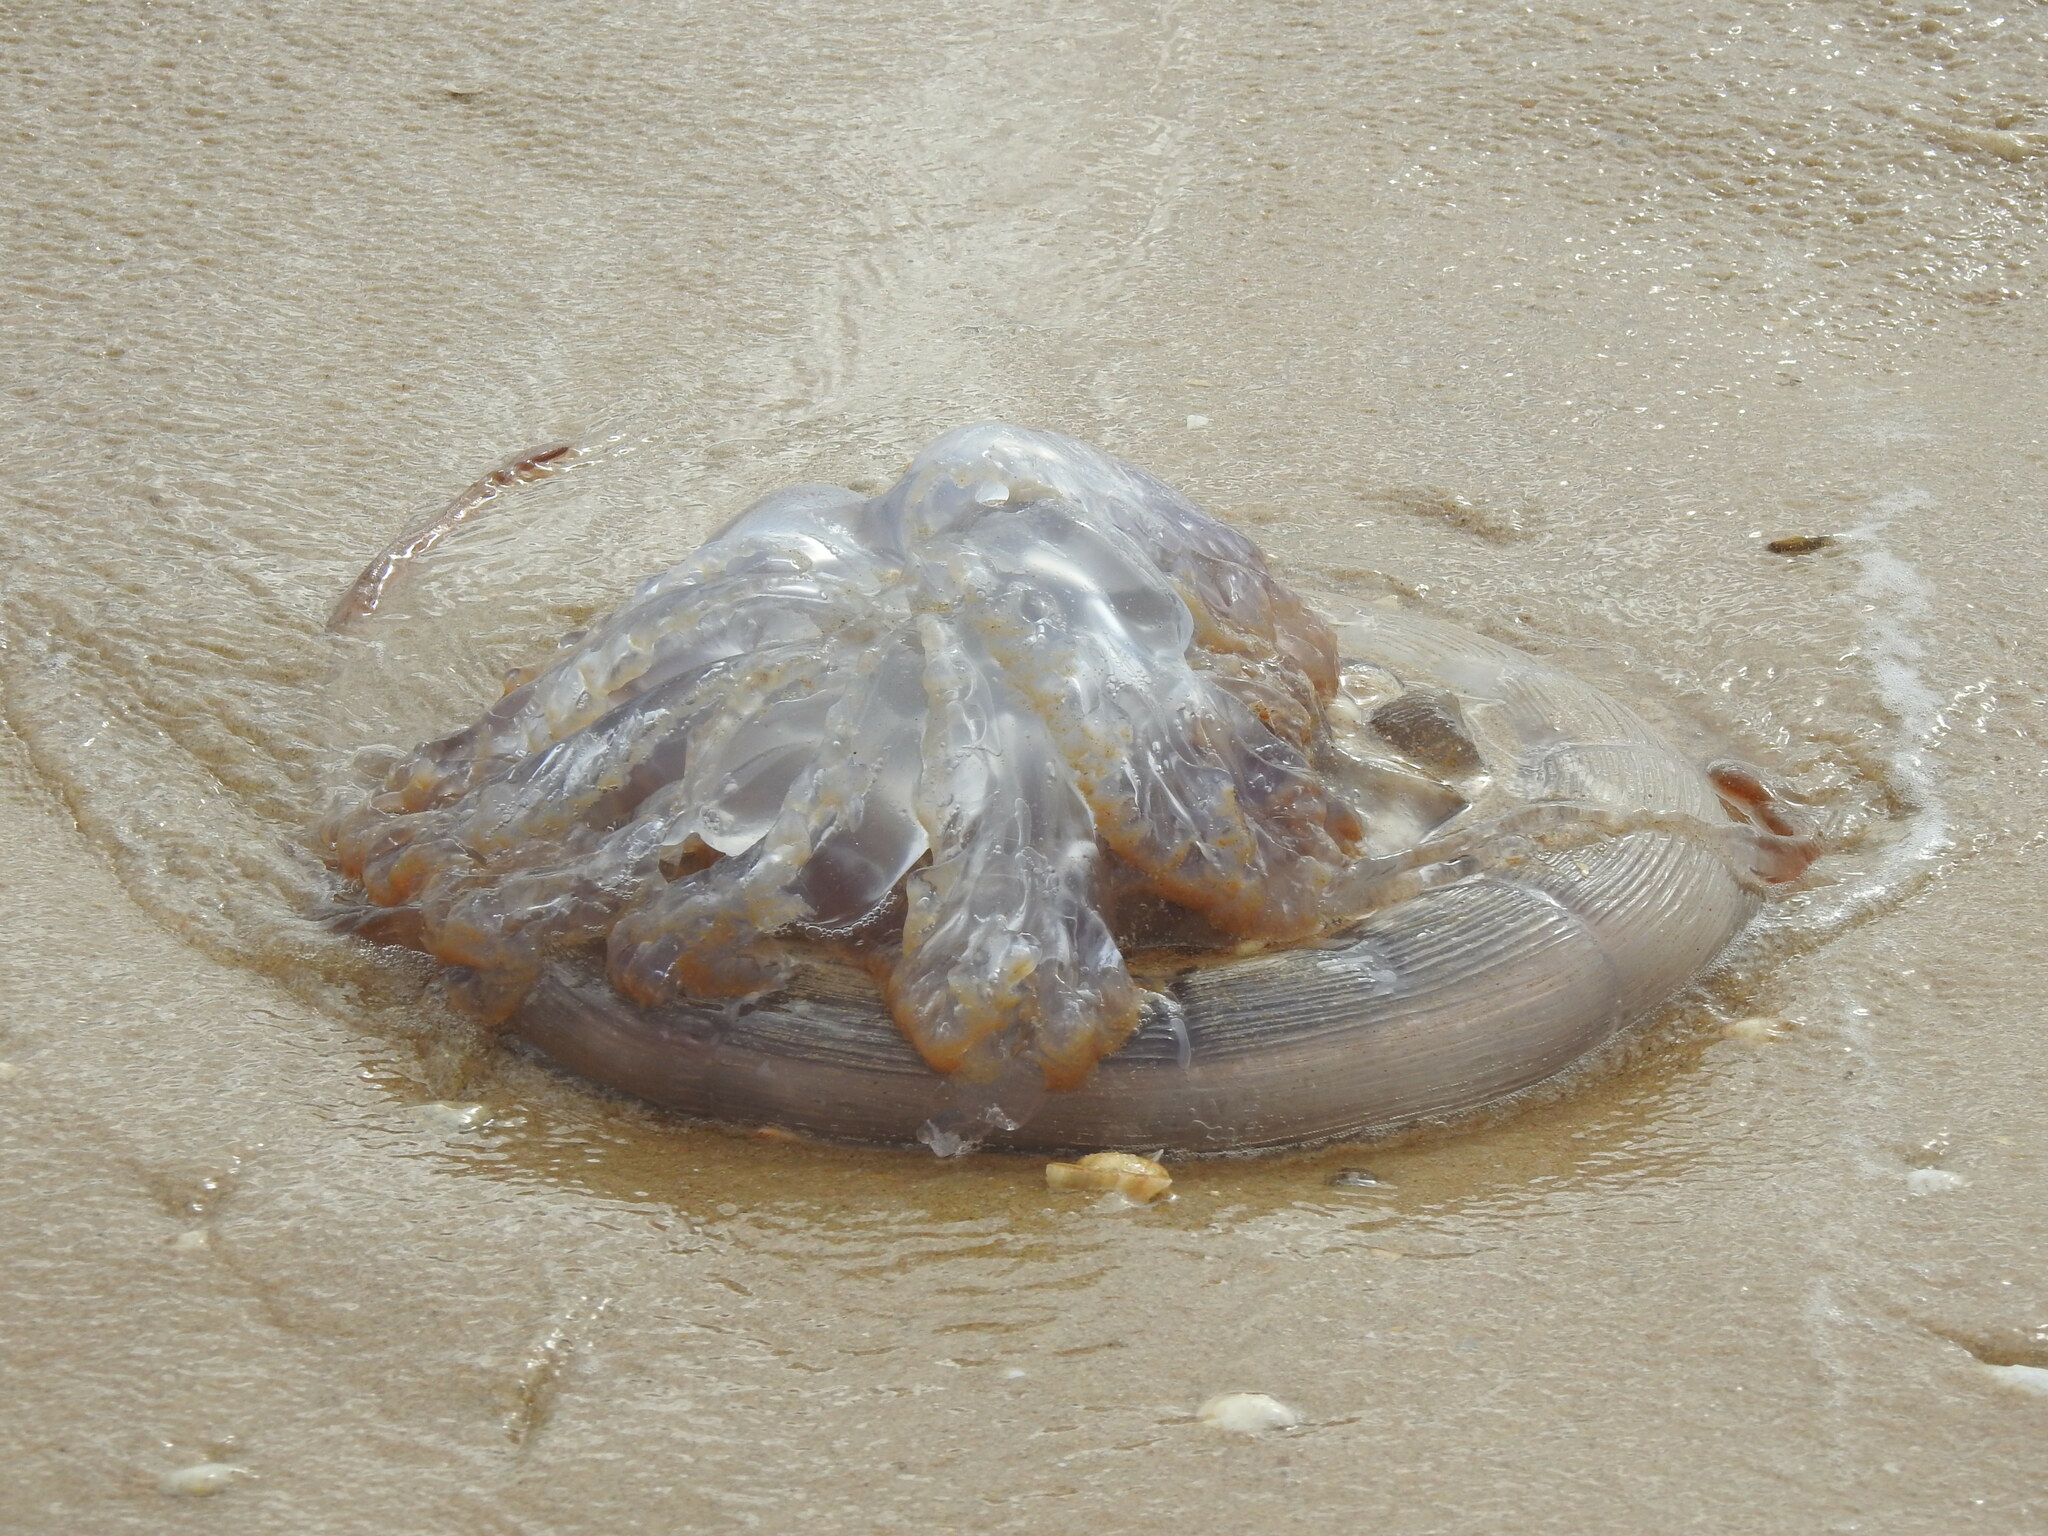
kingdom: Animalia
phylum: Cnidaria
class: Scyphozoa
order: Rhizostomeae
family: Rhizostomatidae
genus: Rhizostoma
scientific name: Rhizostoma luteum
